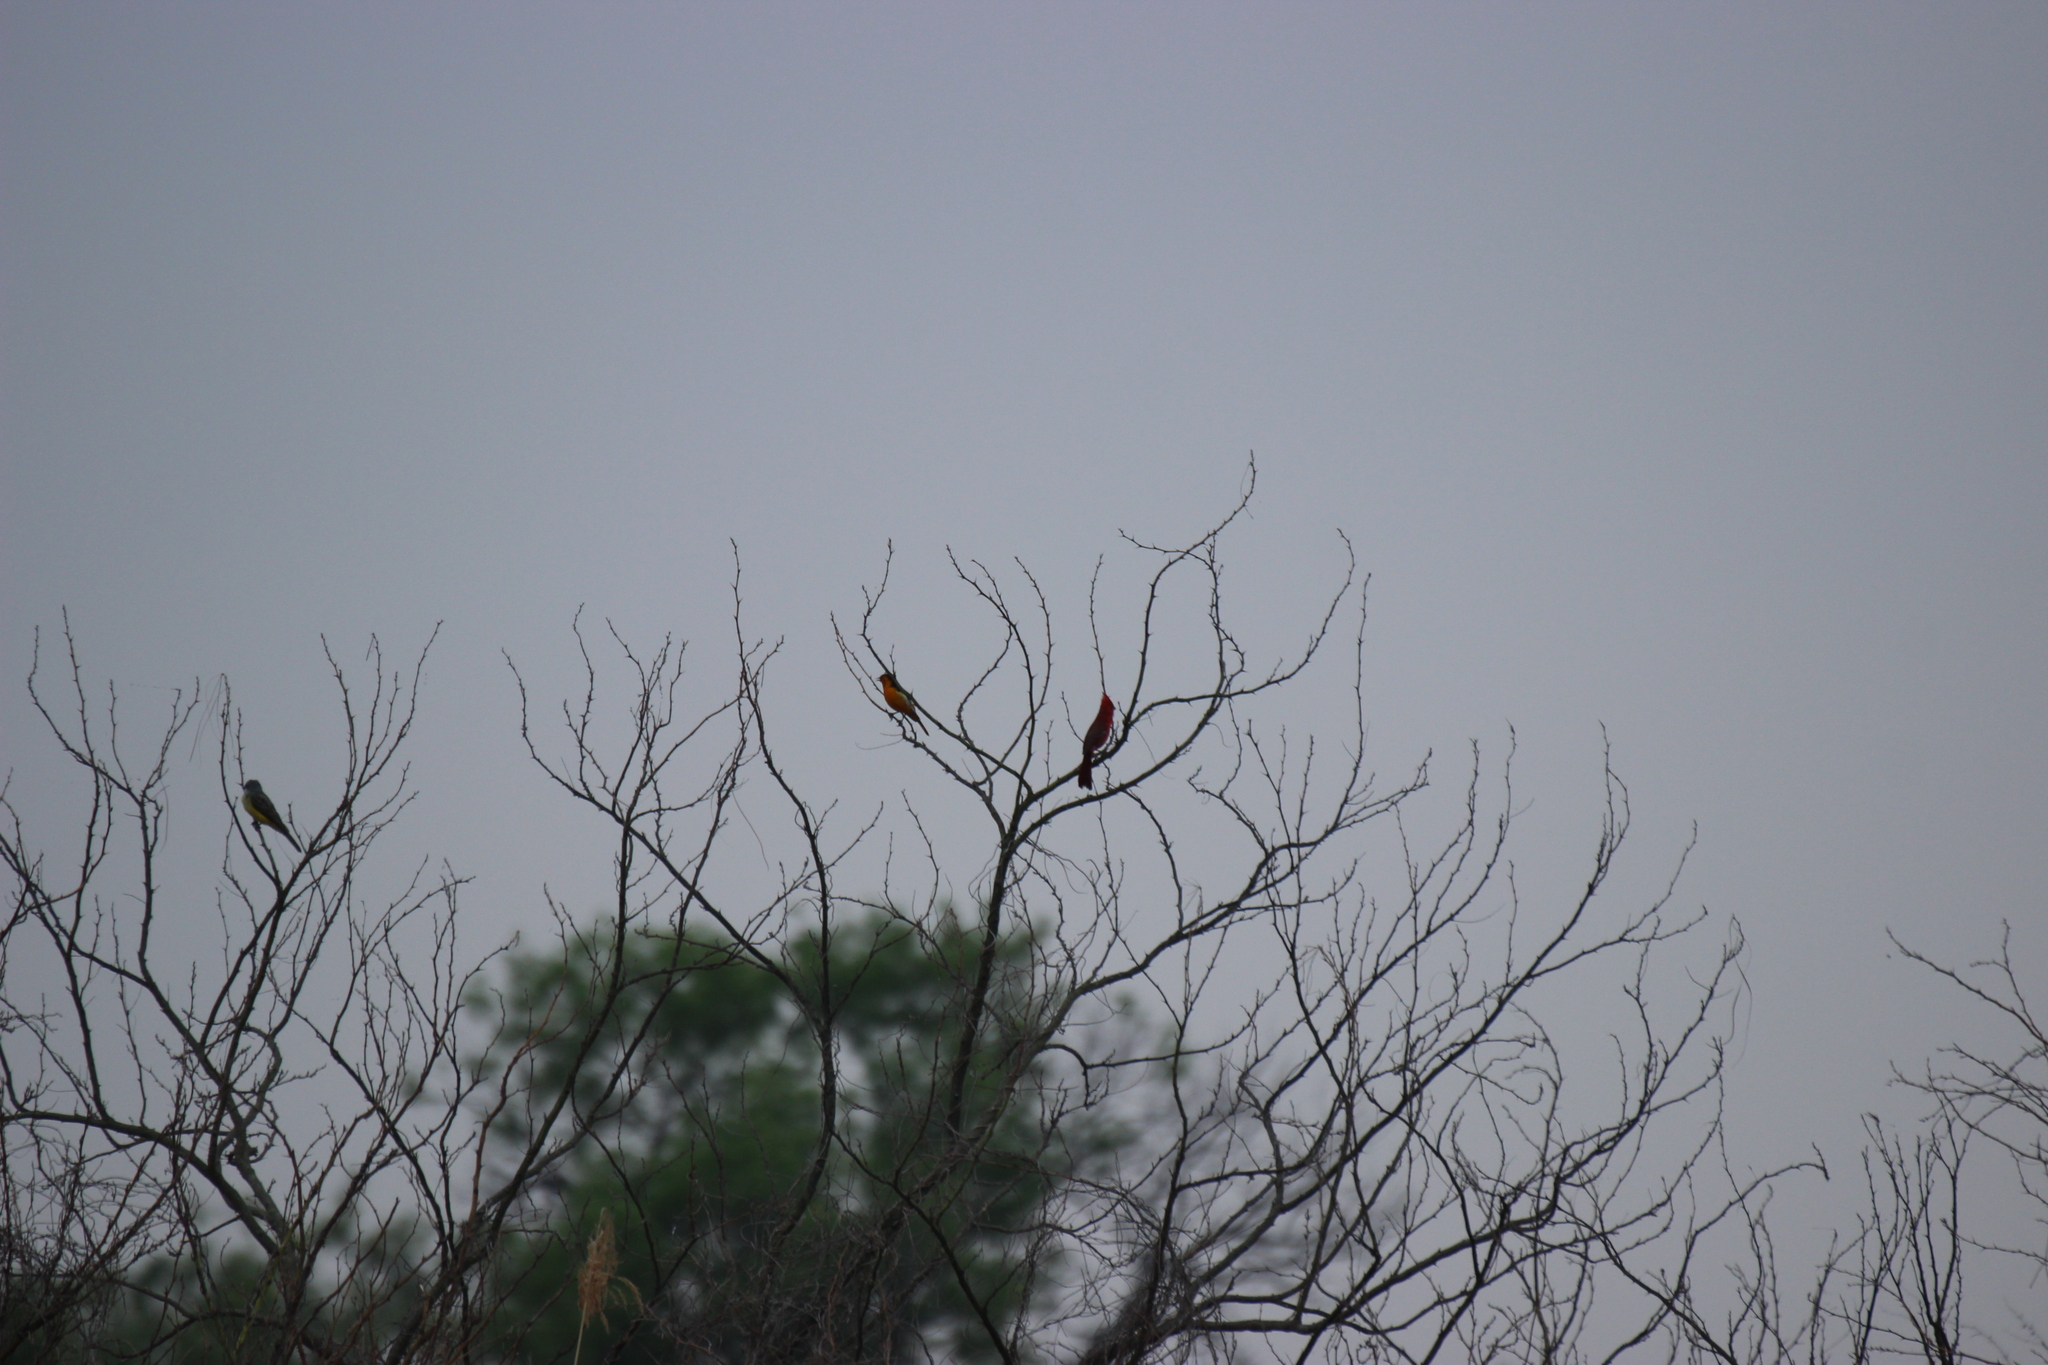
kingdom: Animalia
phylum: Chordata
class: Aves
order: Passeriformes
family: Icteridae
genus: Icterus
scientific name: Icterus bullockii
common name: Bullock's oriole
